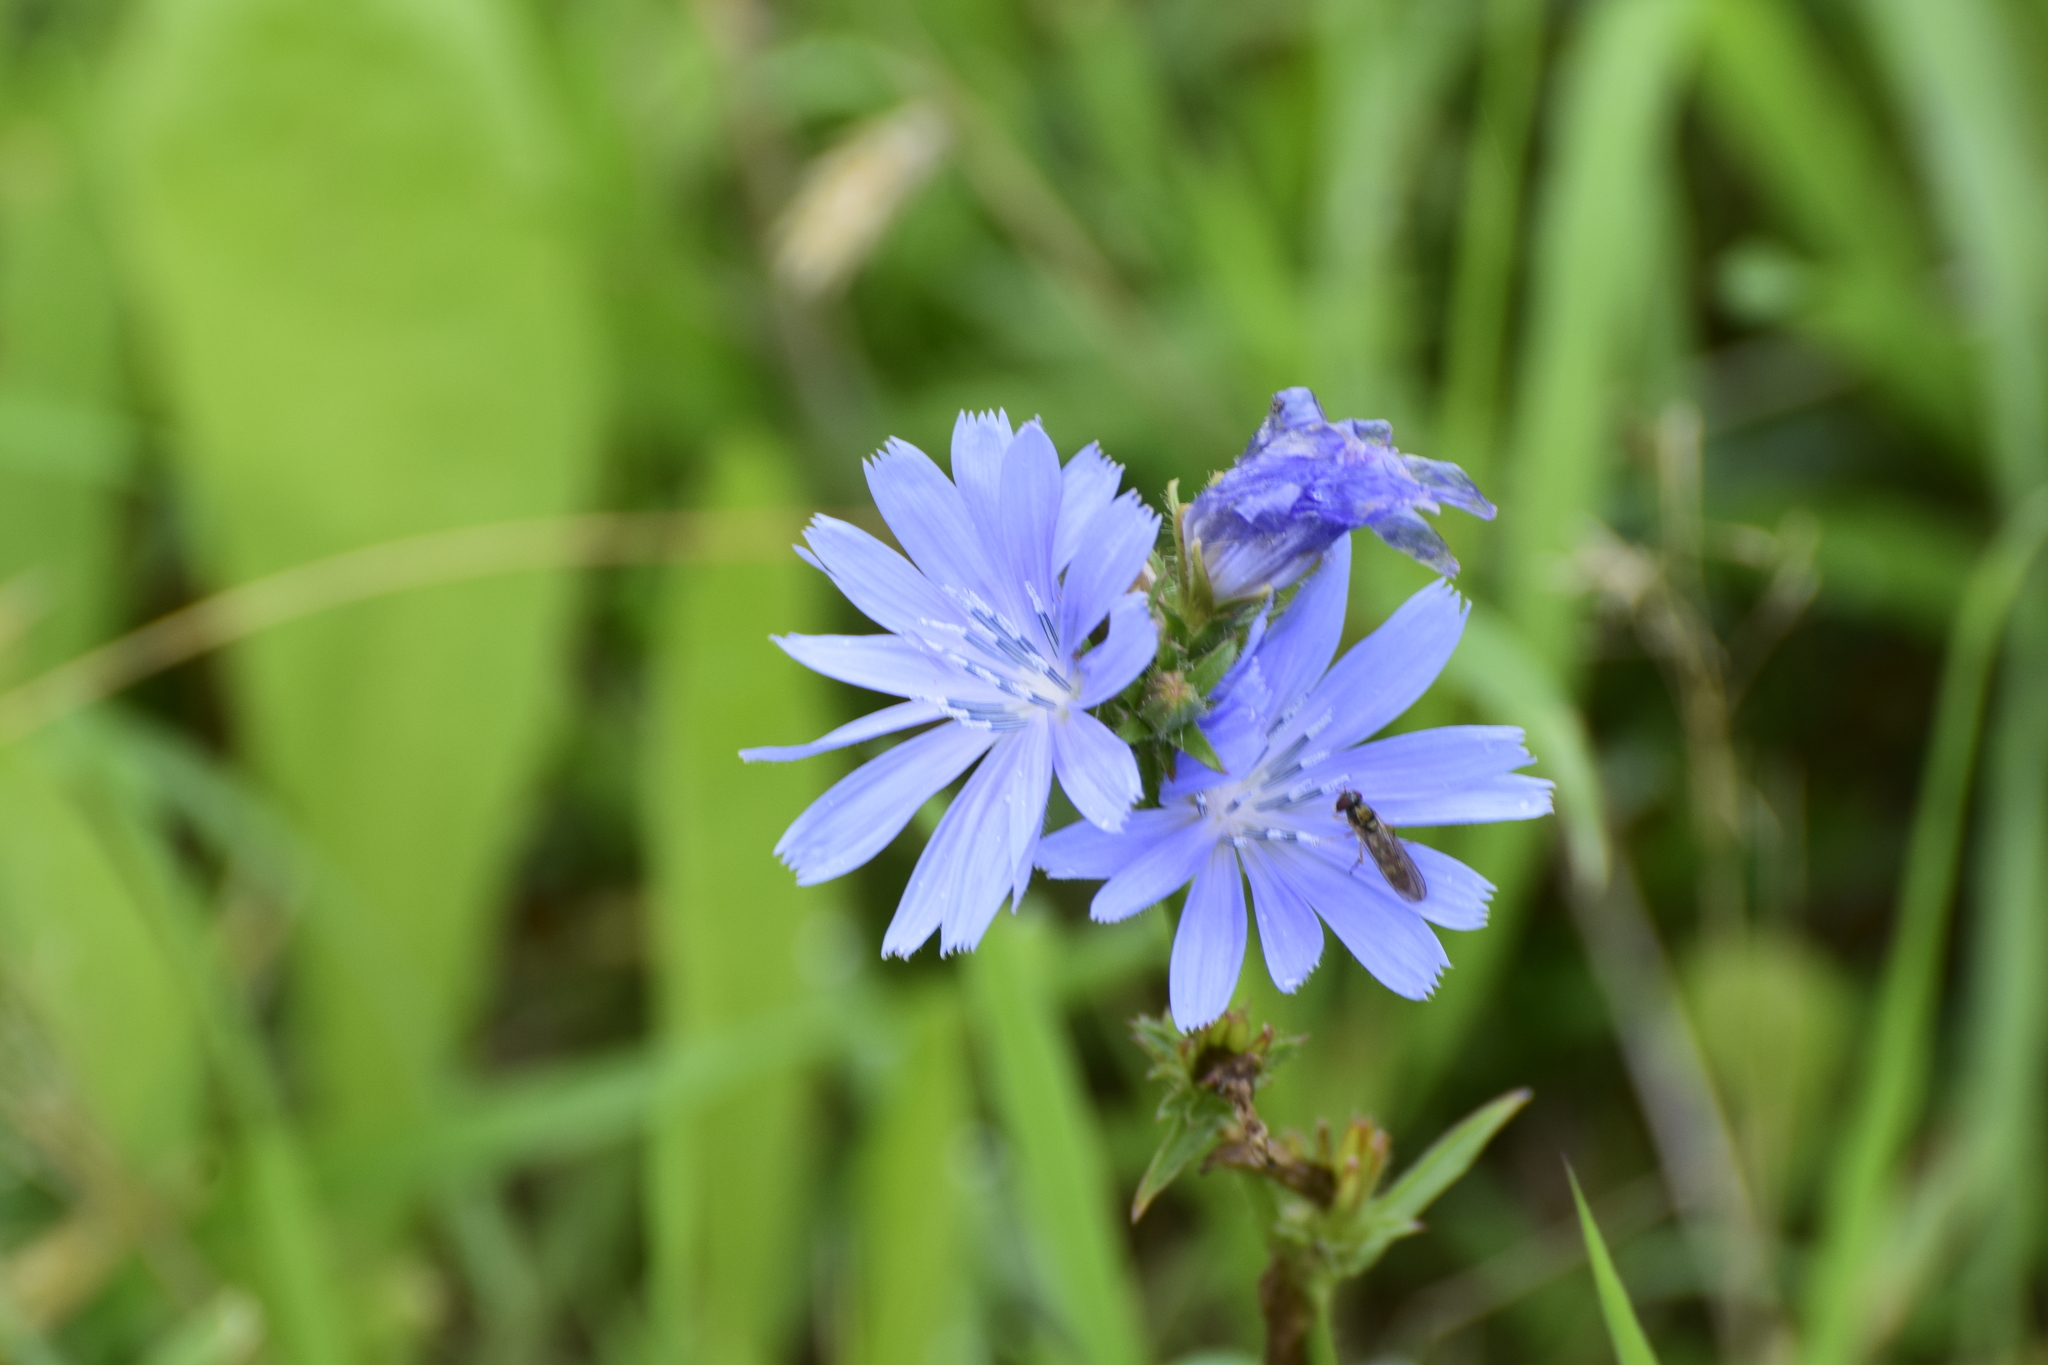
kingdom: Plantae
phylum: Tracheophyta
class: Magnoliopsida
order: Asterales
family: Asteraceae
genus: Cichorium
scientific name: Cichorium intybus
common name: Chicory
